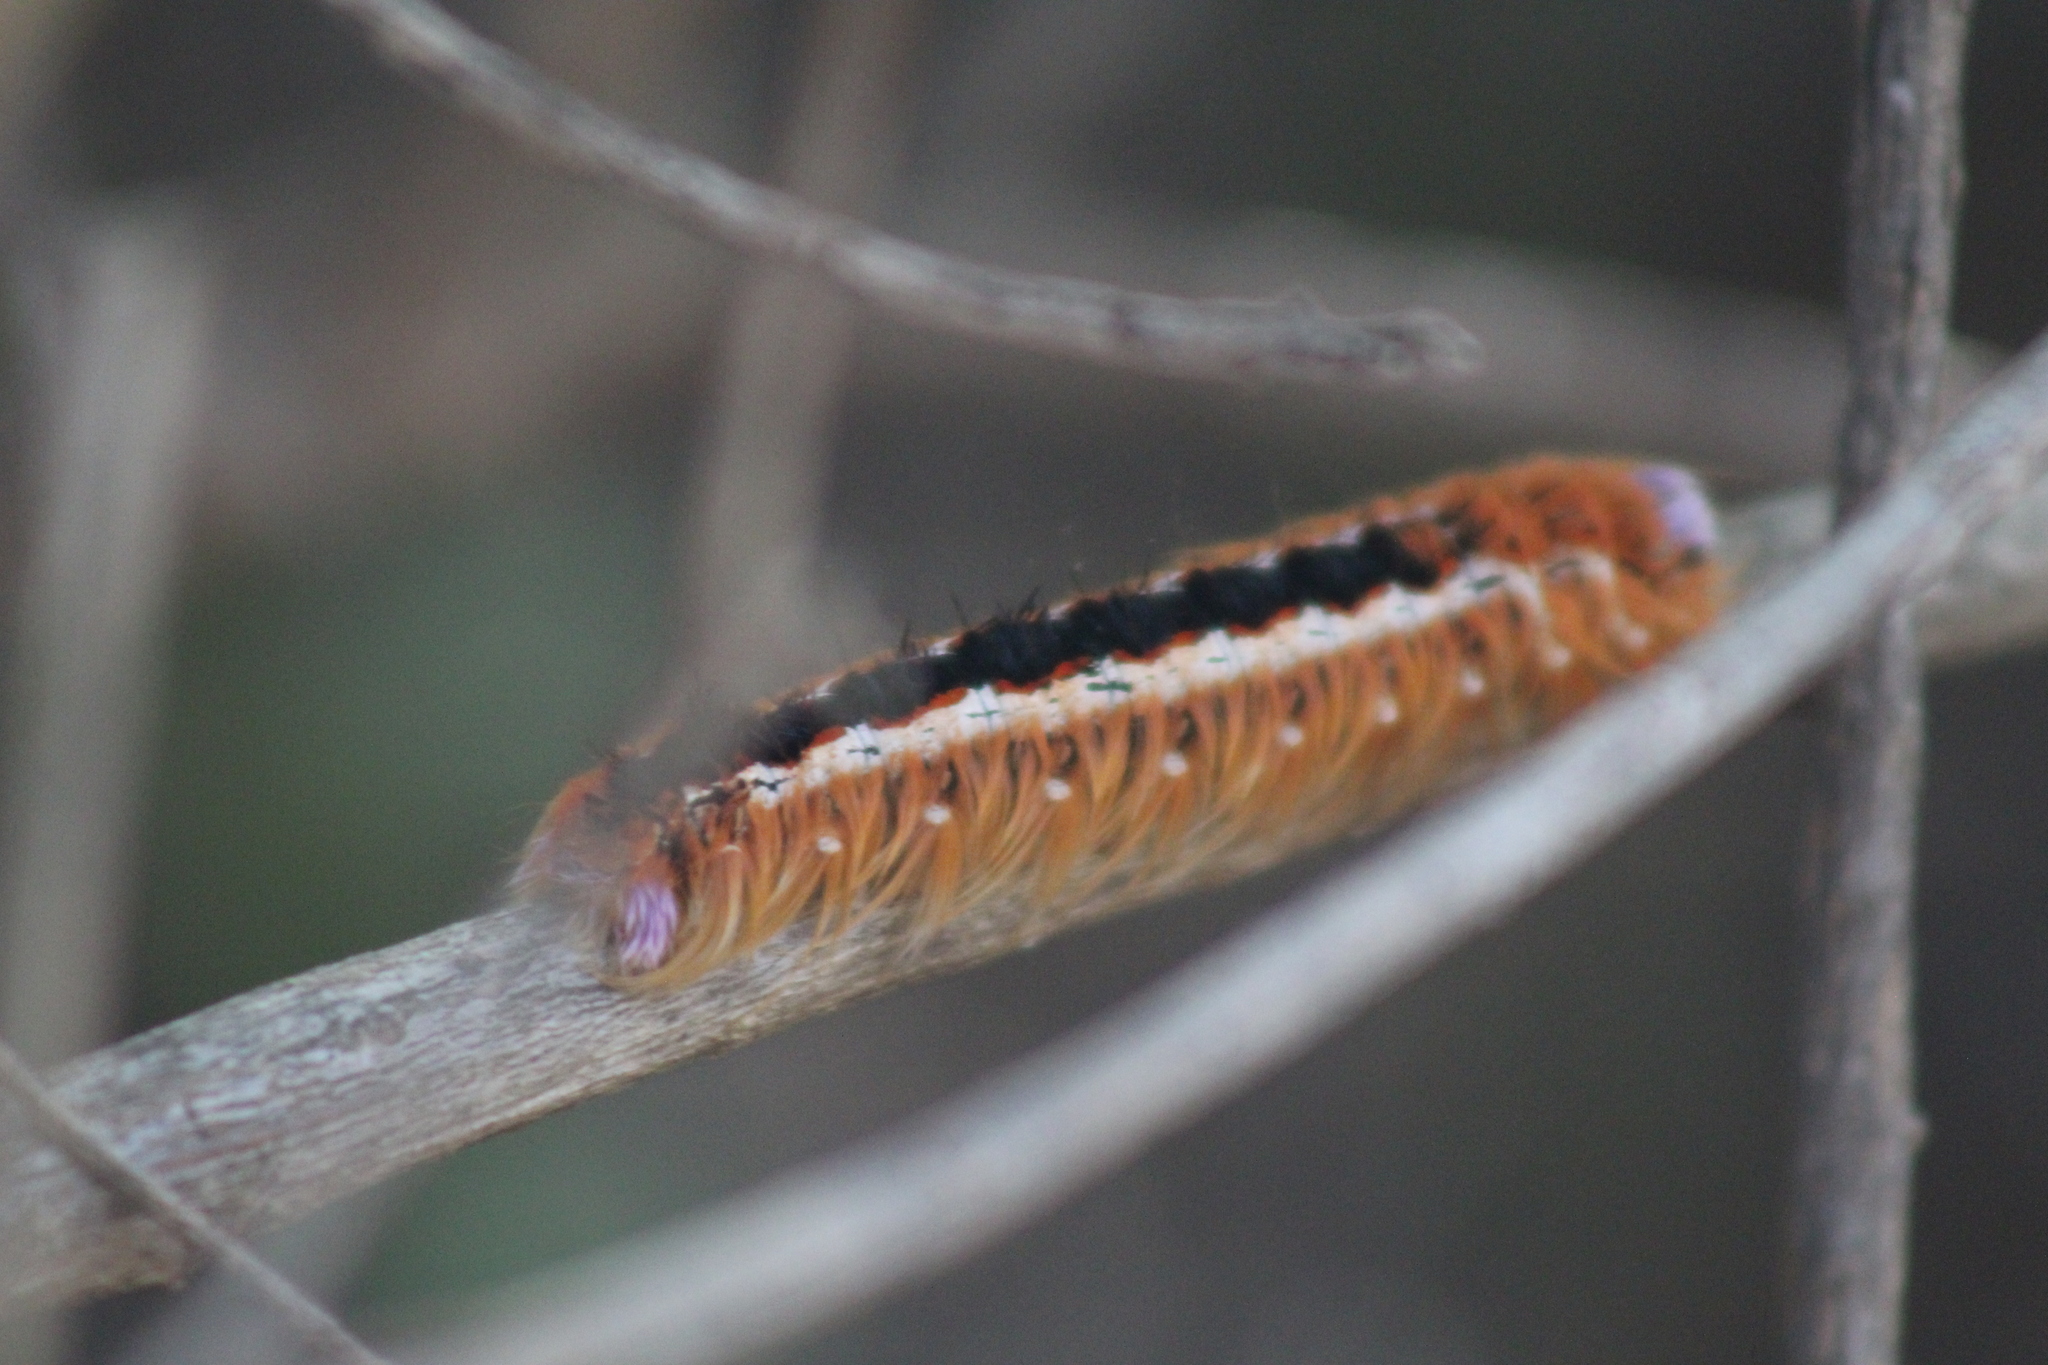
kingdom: Animalia
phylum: Arthropoda
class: Insecta
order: Lepidoptera
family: Lasiocampidae
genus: Eutricha
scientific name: Eutricha capensis
